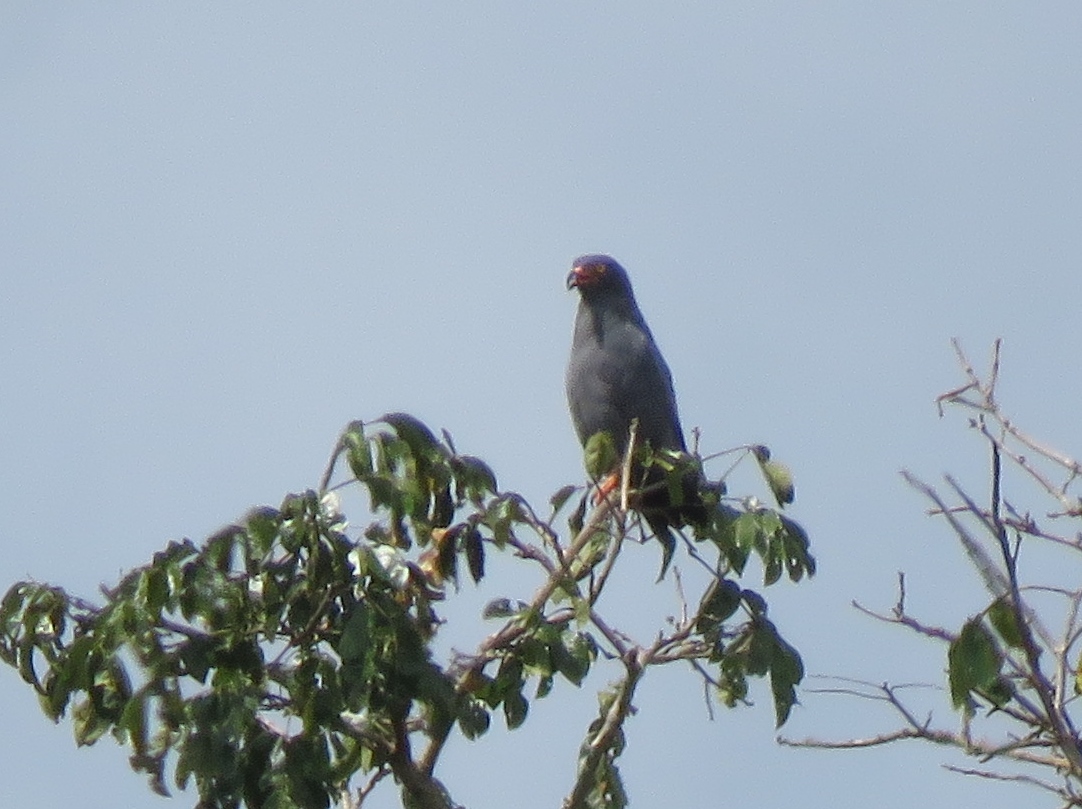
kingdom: Animalia
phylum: Chordata
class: Aves
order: Accipitriformes
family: Accipitridae
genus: Helicolestes
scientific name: Helicolestes hamatus
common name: Slender-billed kite
